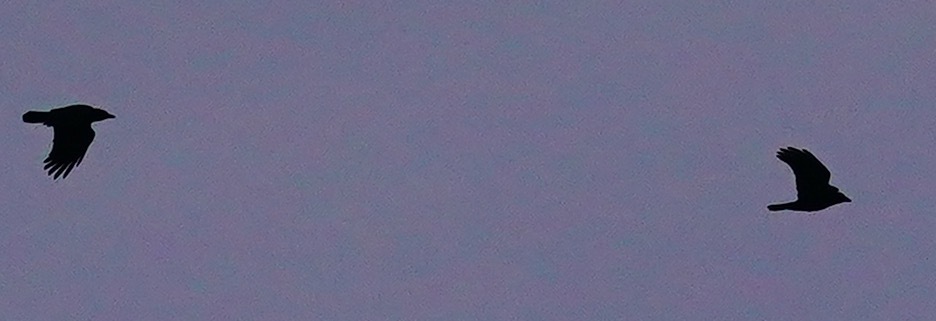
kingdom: Animalia
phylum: Chordata
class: Aves
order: Passeriformes
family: Corvidae
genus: Corvus
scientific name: Corvus brachyrhynchos
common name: American crow
